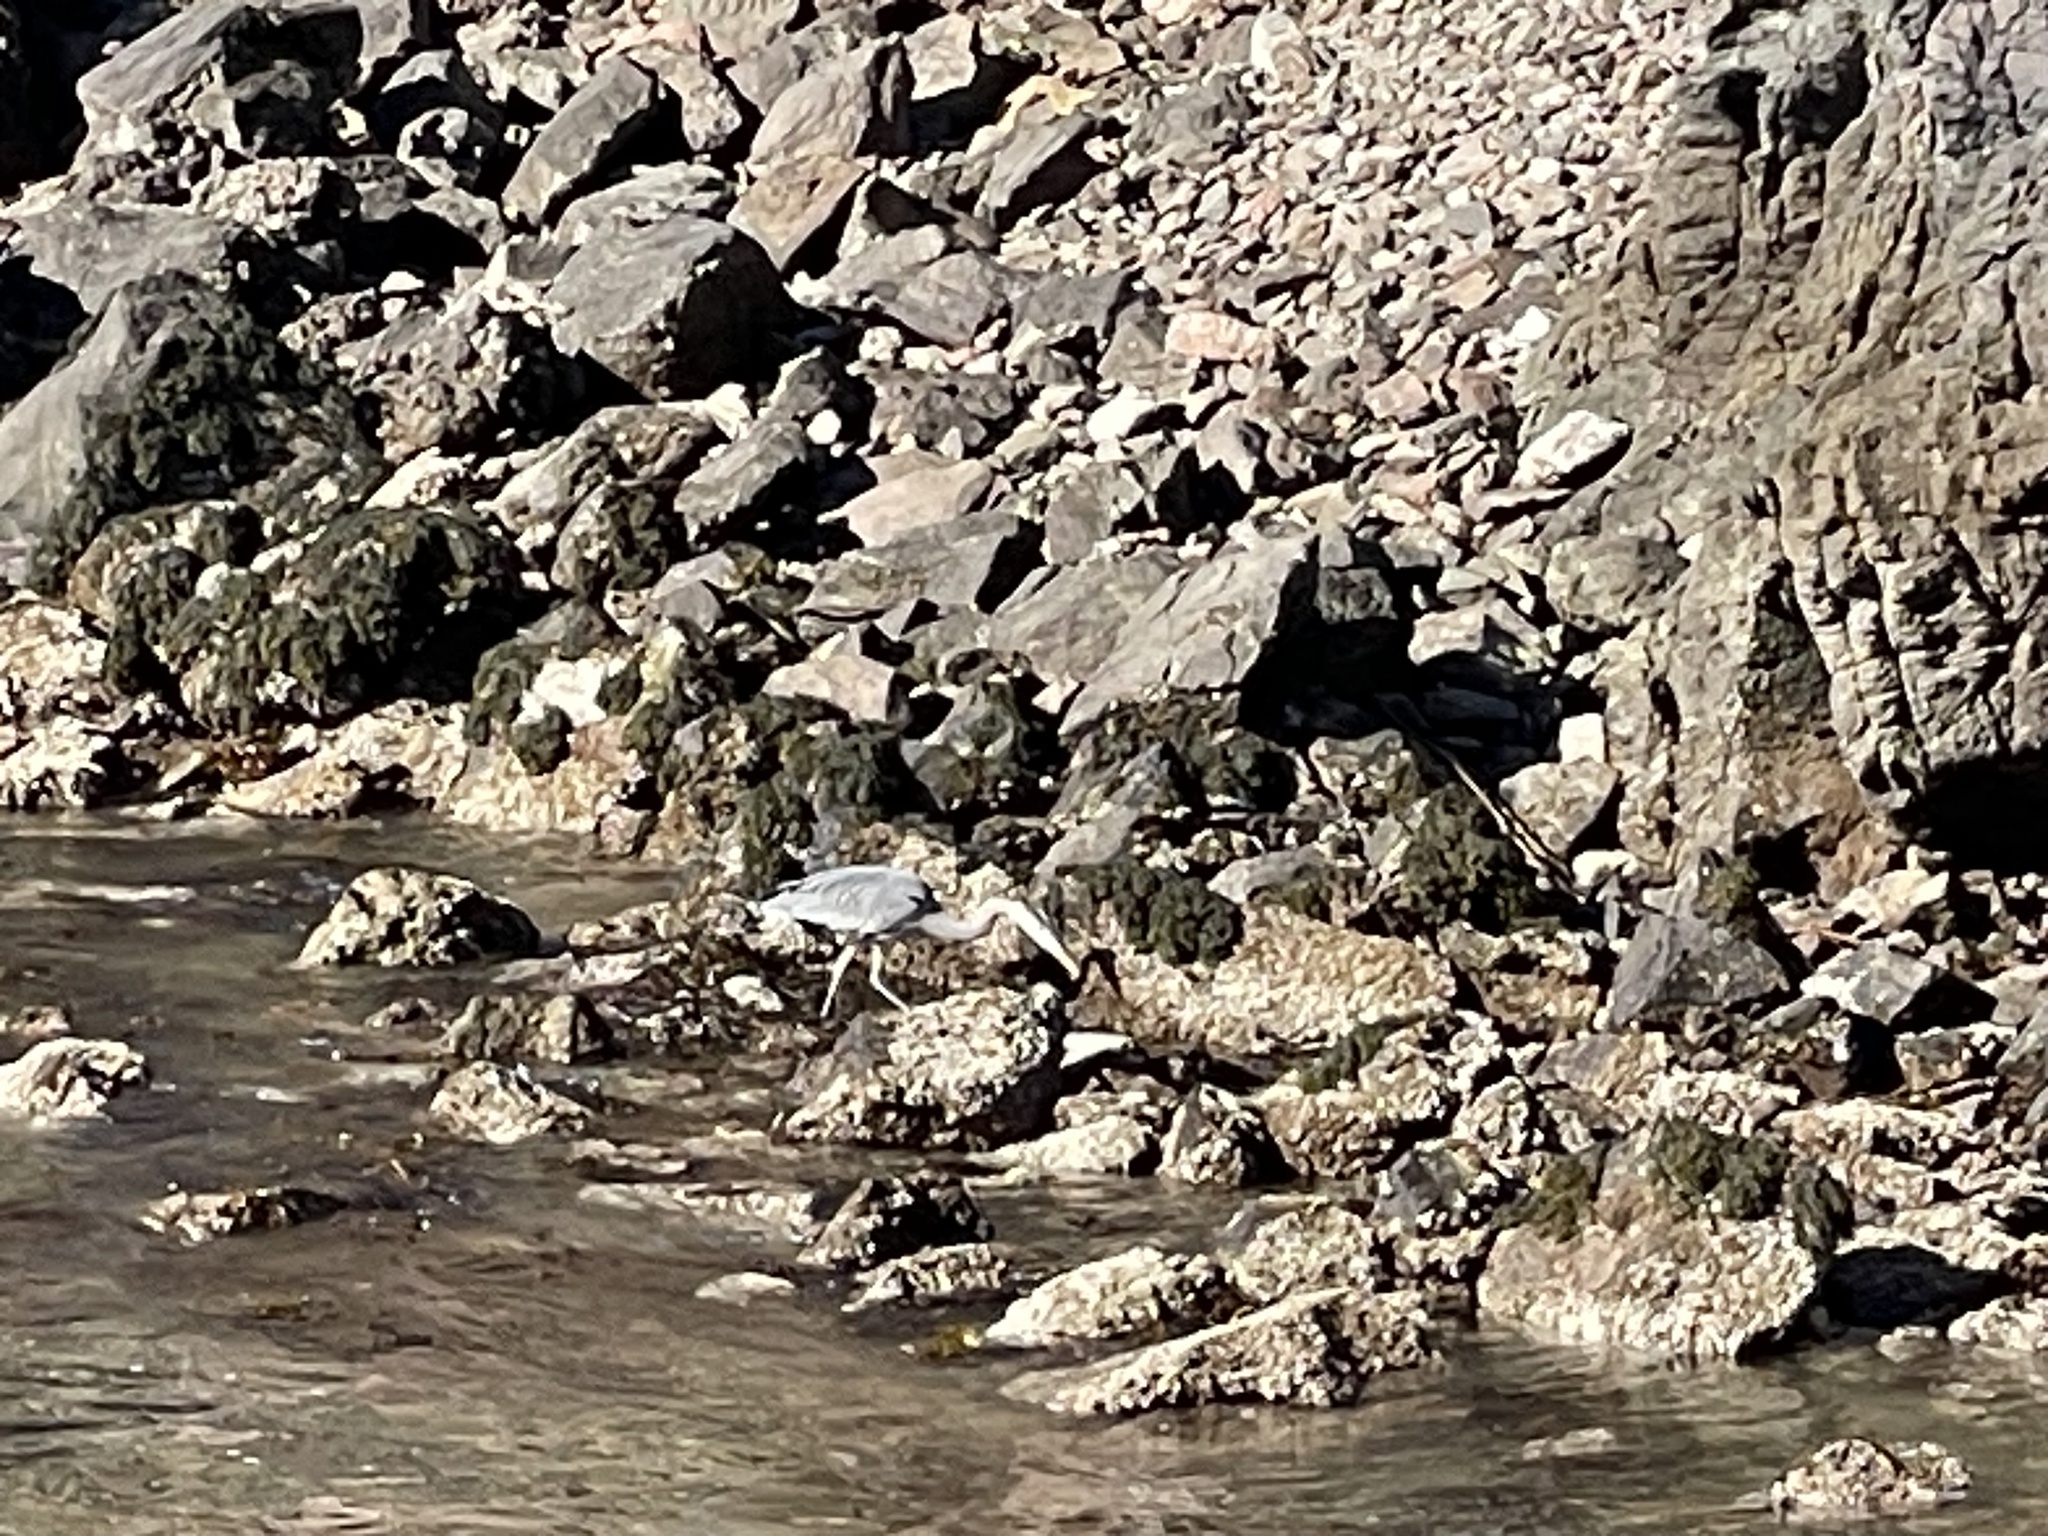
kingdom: Animalia
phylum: Chordata
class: Aves
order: Pelecaniformes
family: Ardeidae
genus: Ardea
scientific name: Ardea herodias
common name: Great blue heron
